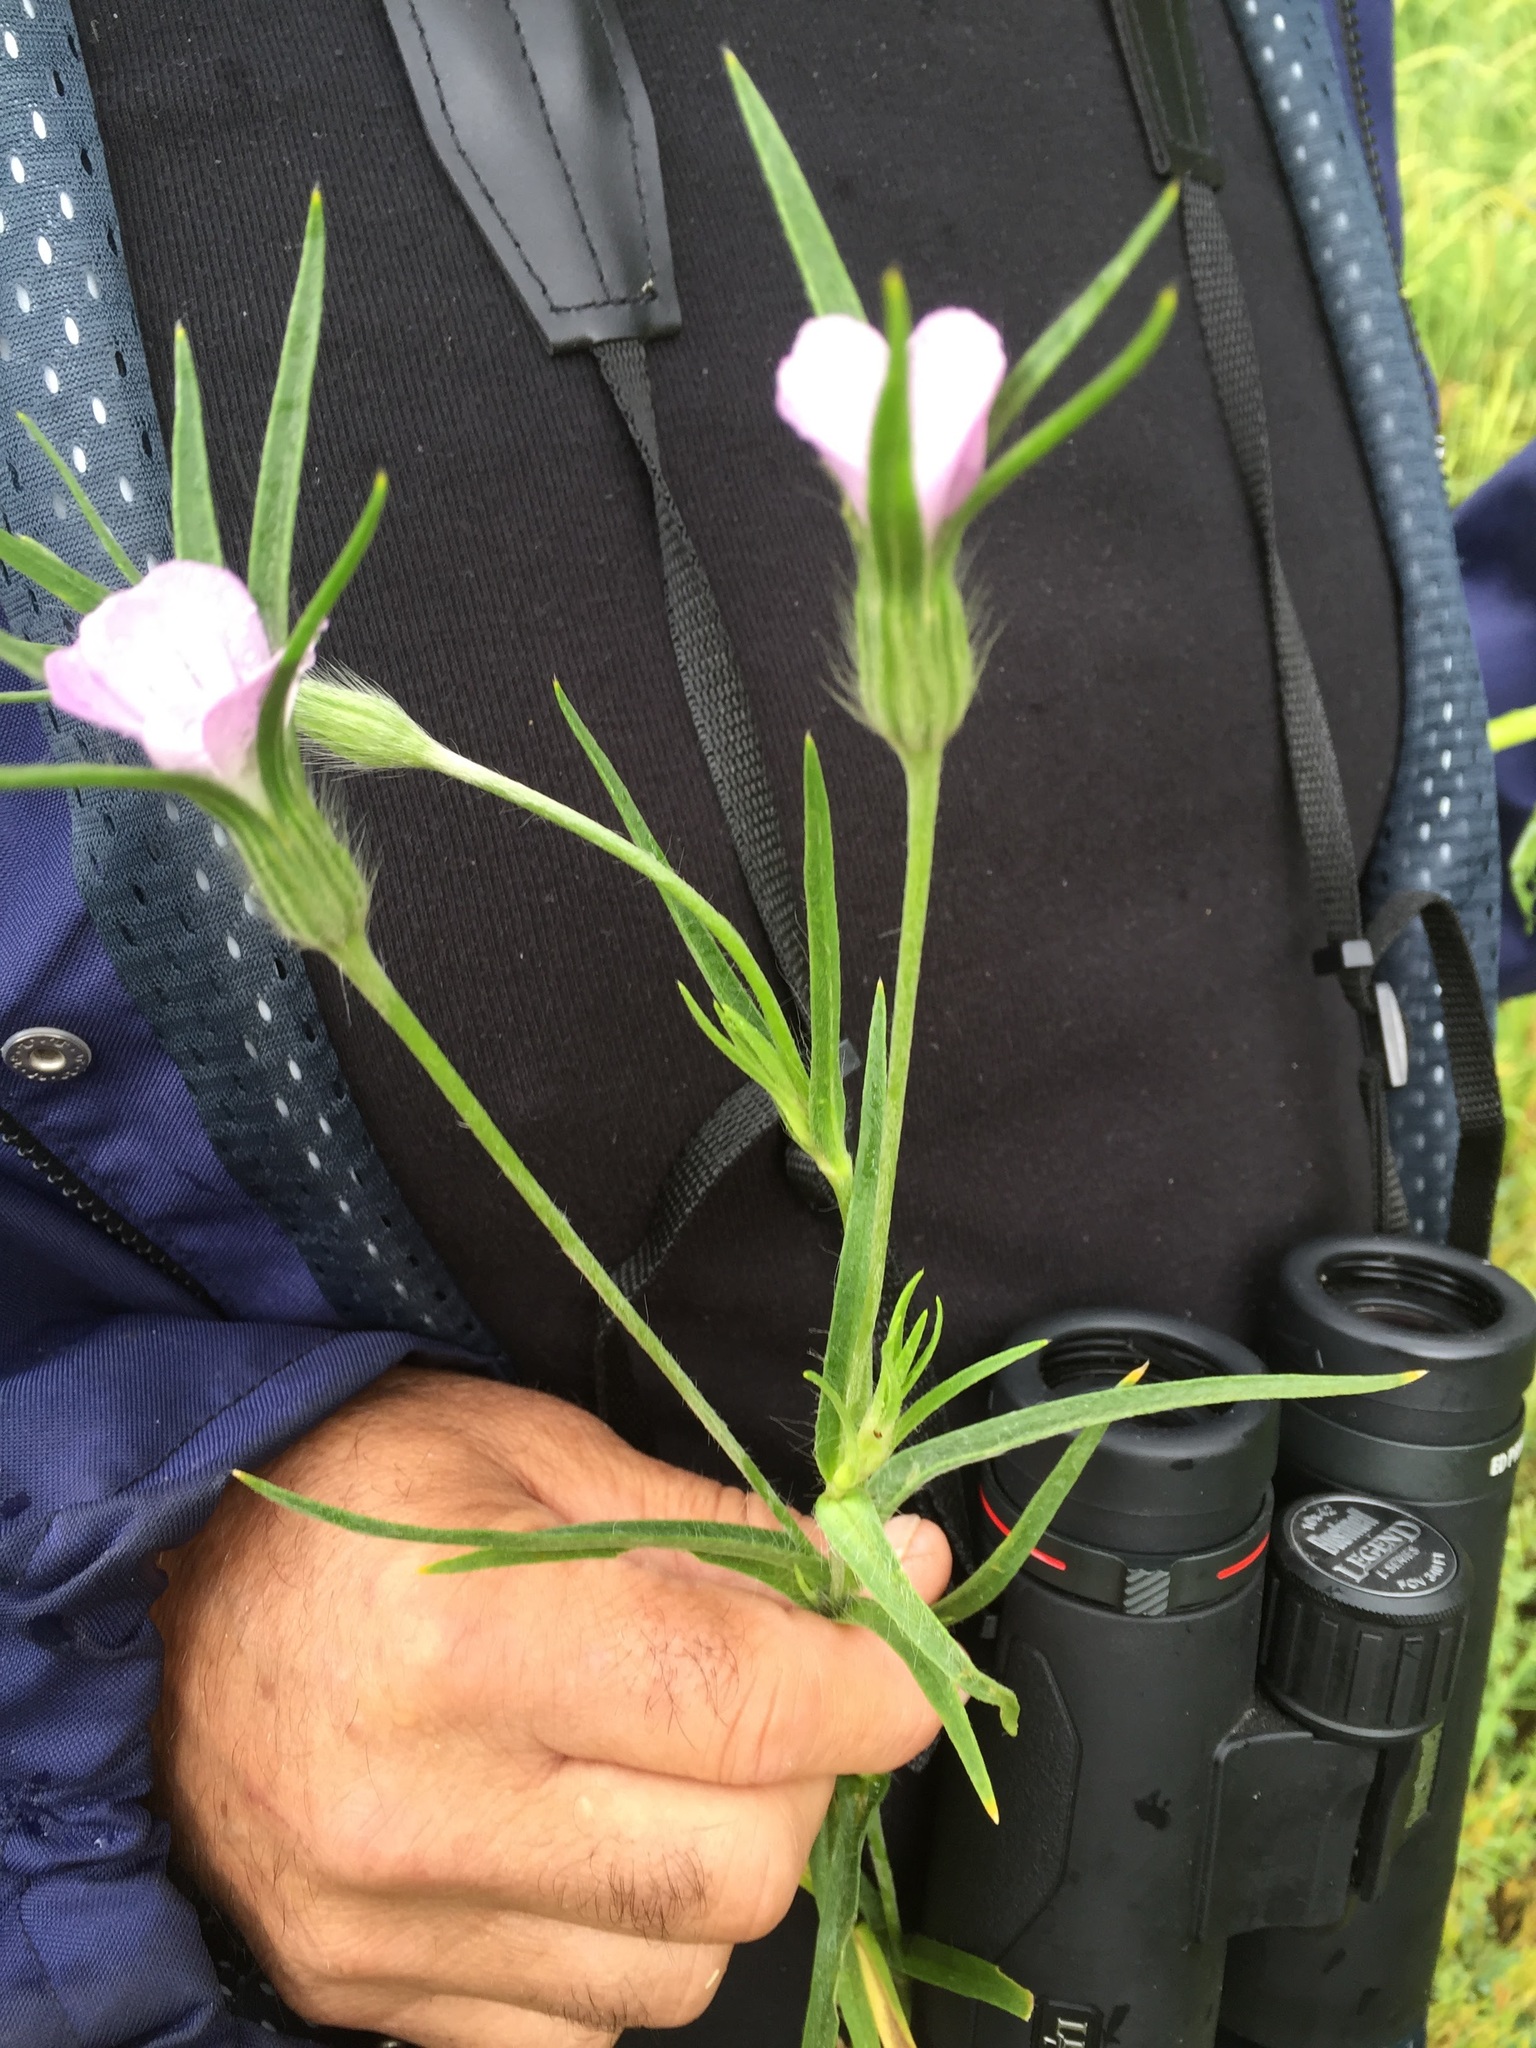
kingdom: Plantae
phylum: Tracheophyta
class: Magnoliopsida
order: Caryophyllales
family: Caryophyllaceae
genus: Agrostemma
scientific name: Agrostemma githago
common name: Common corncockle
